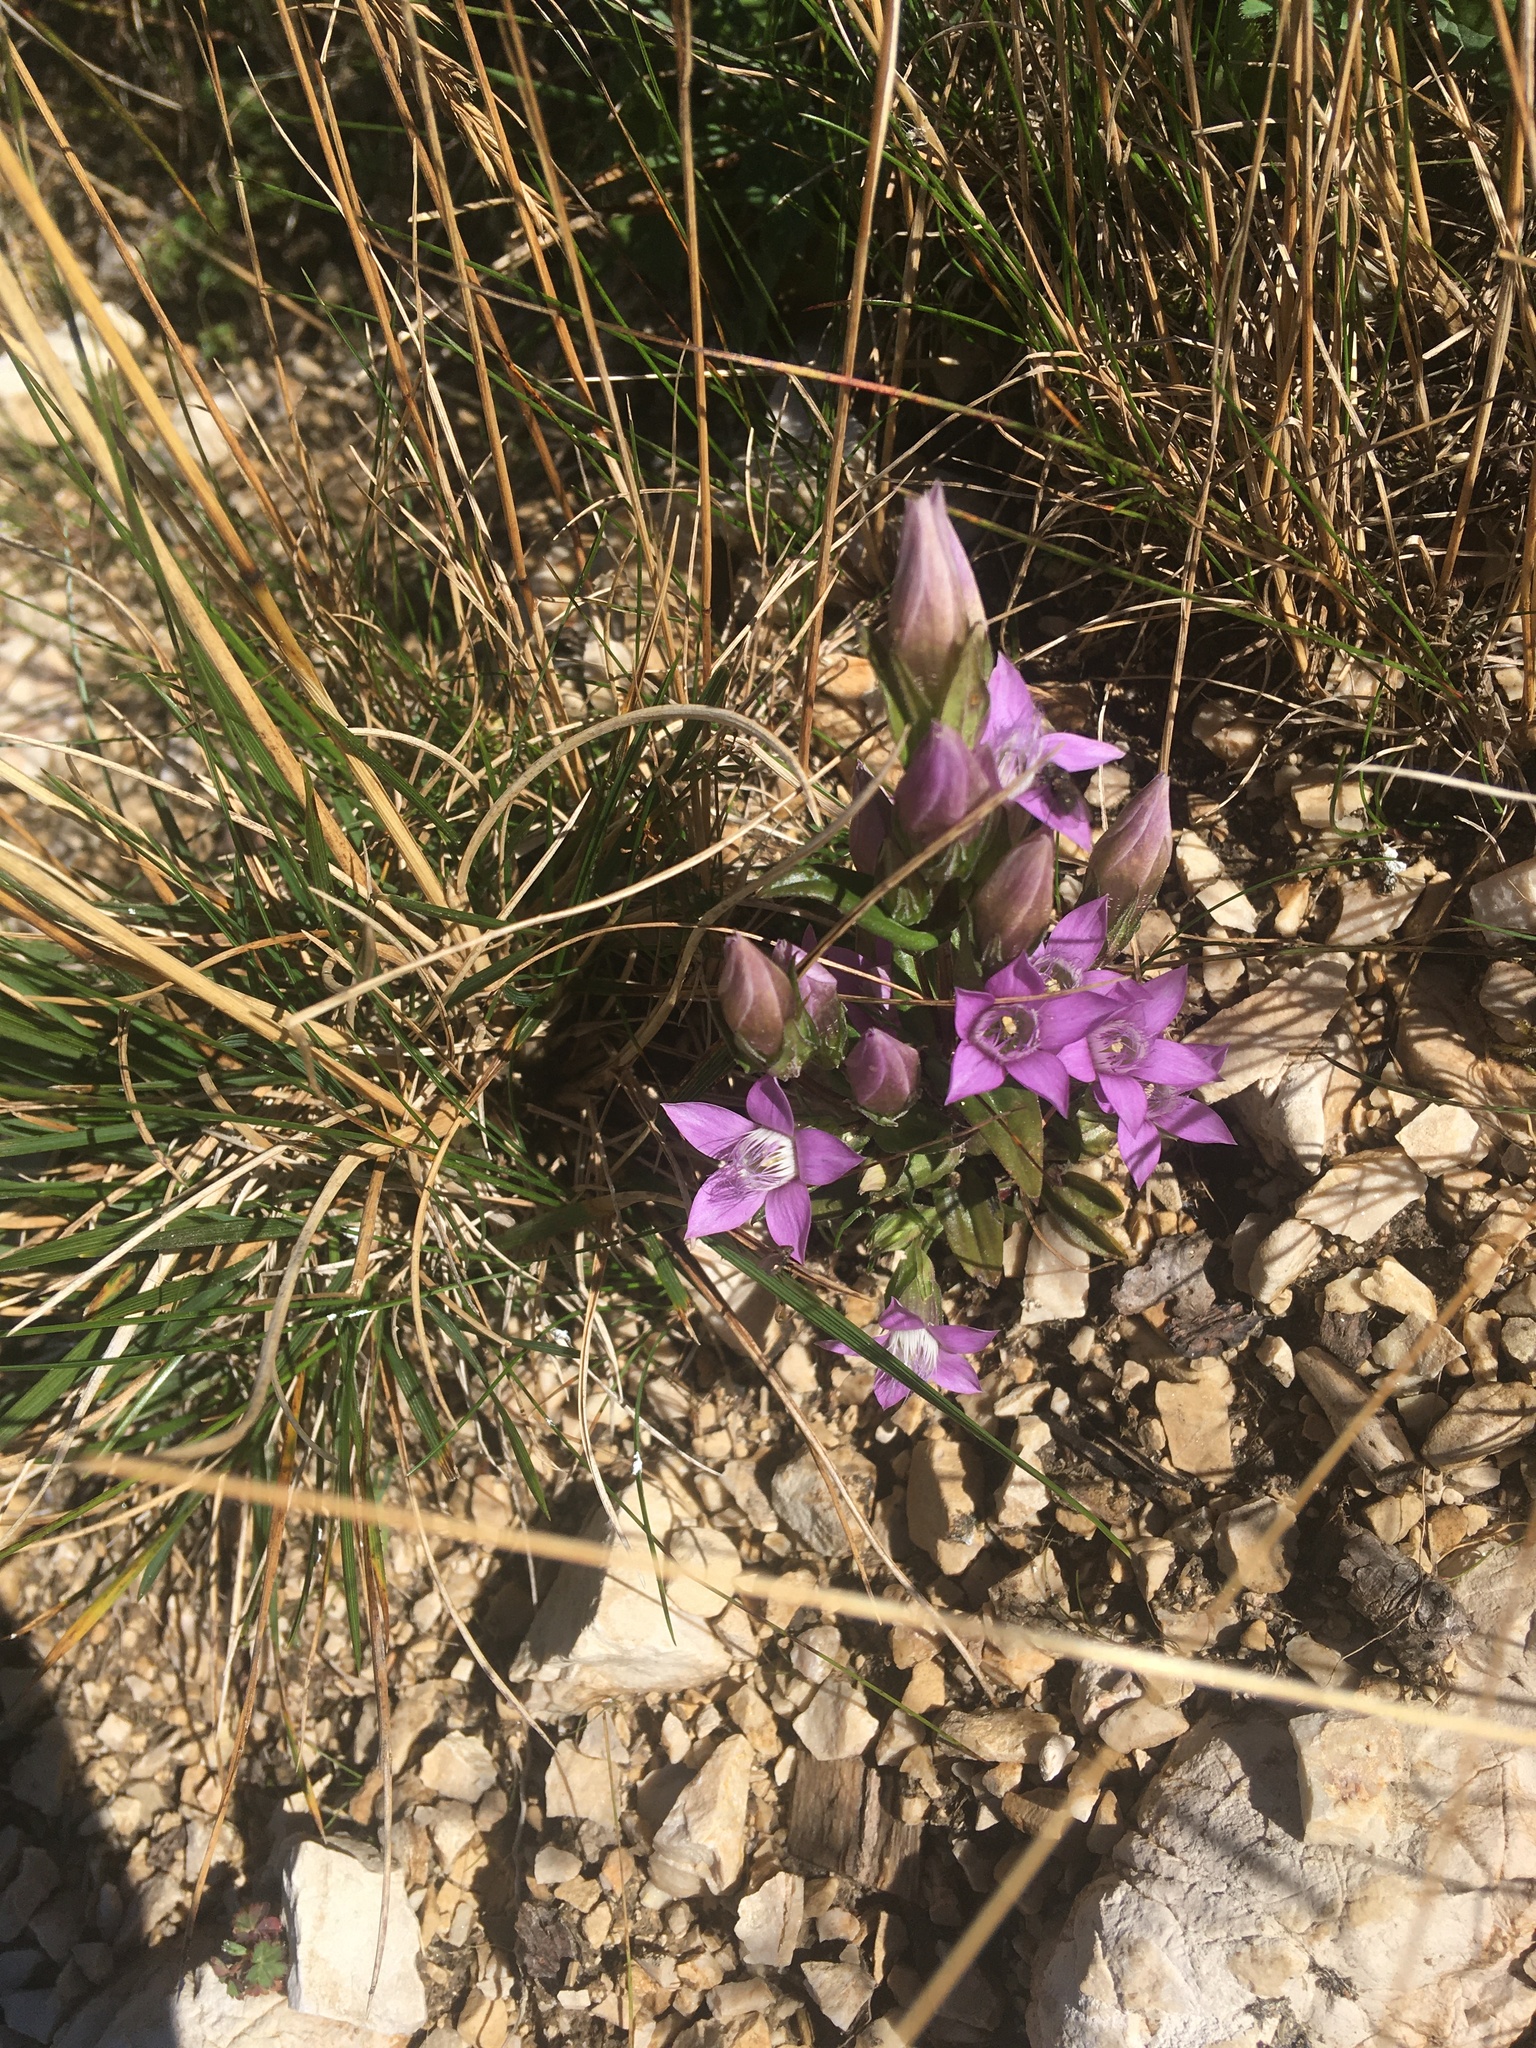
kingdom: Plantae
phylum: Tracheophyta
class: Magnoliopsida
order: Gentianales
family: Gentianaceae
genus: Gentianella
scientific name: Gentianella obtusifolia
